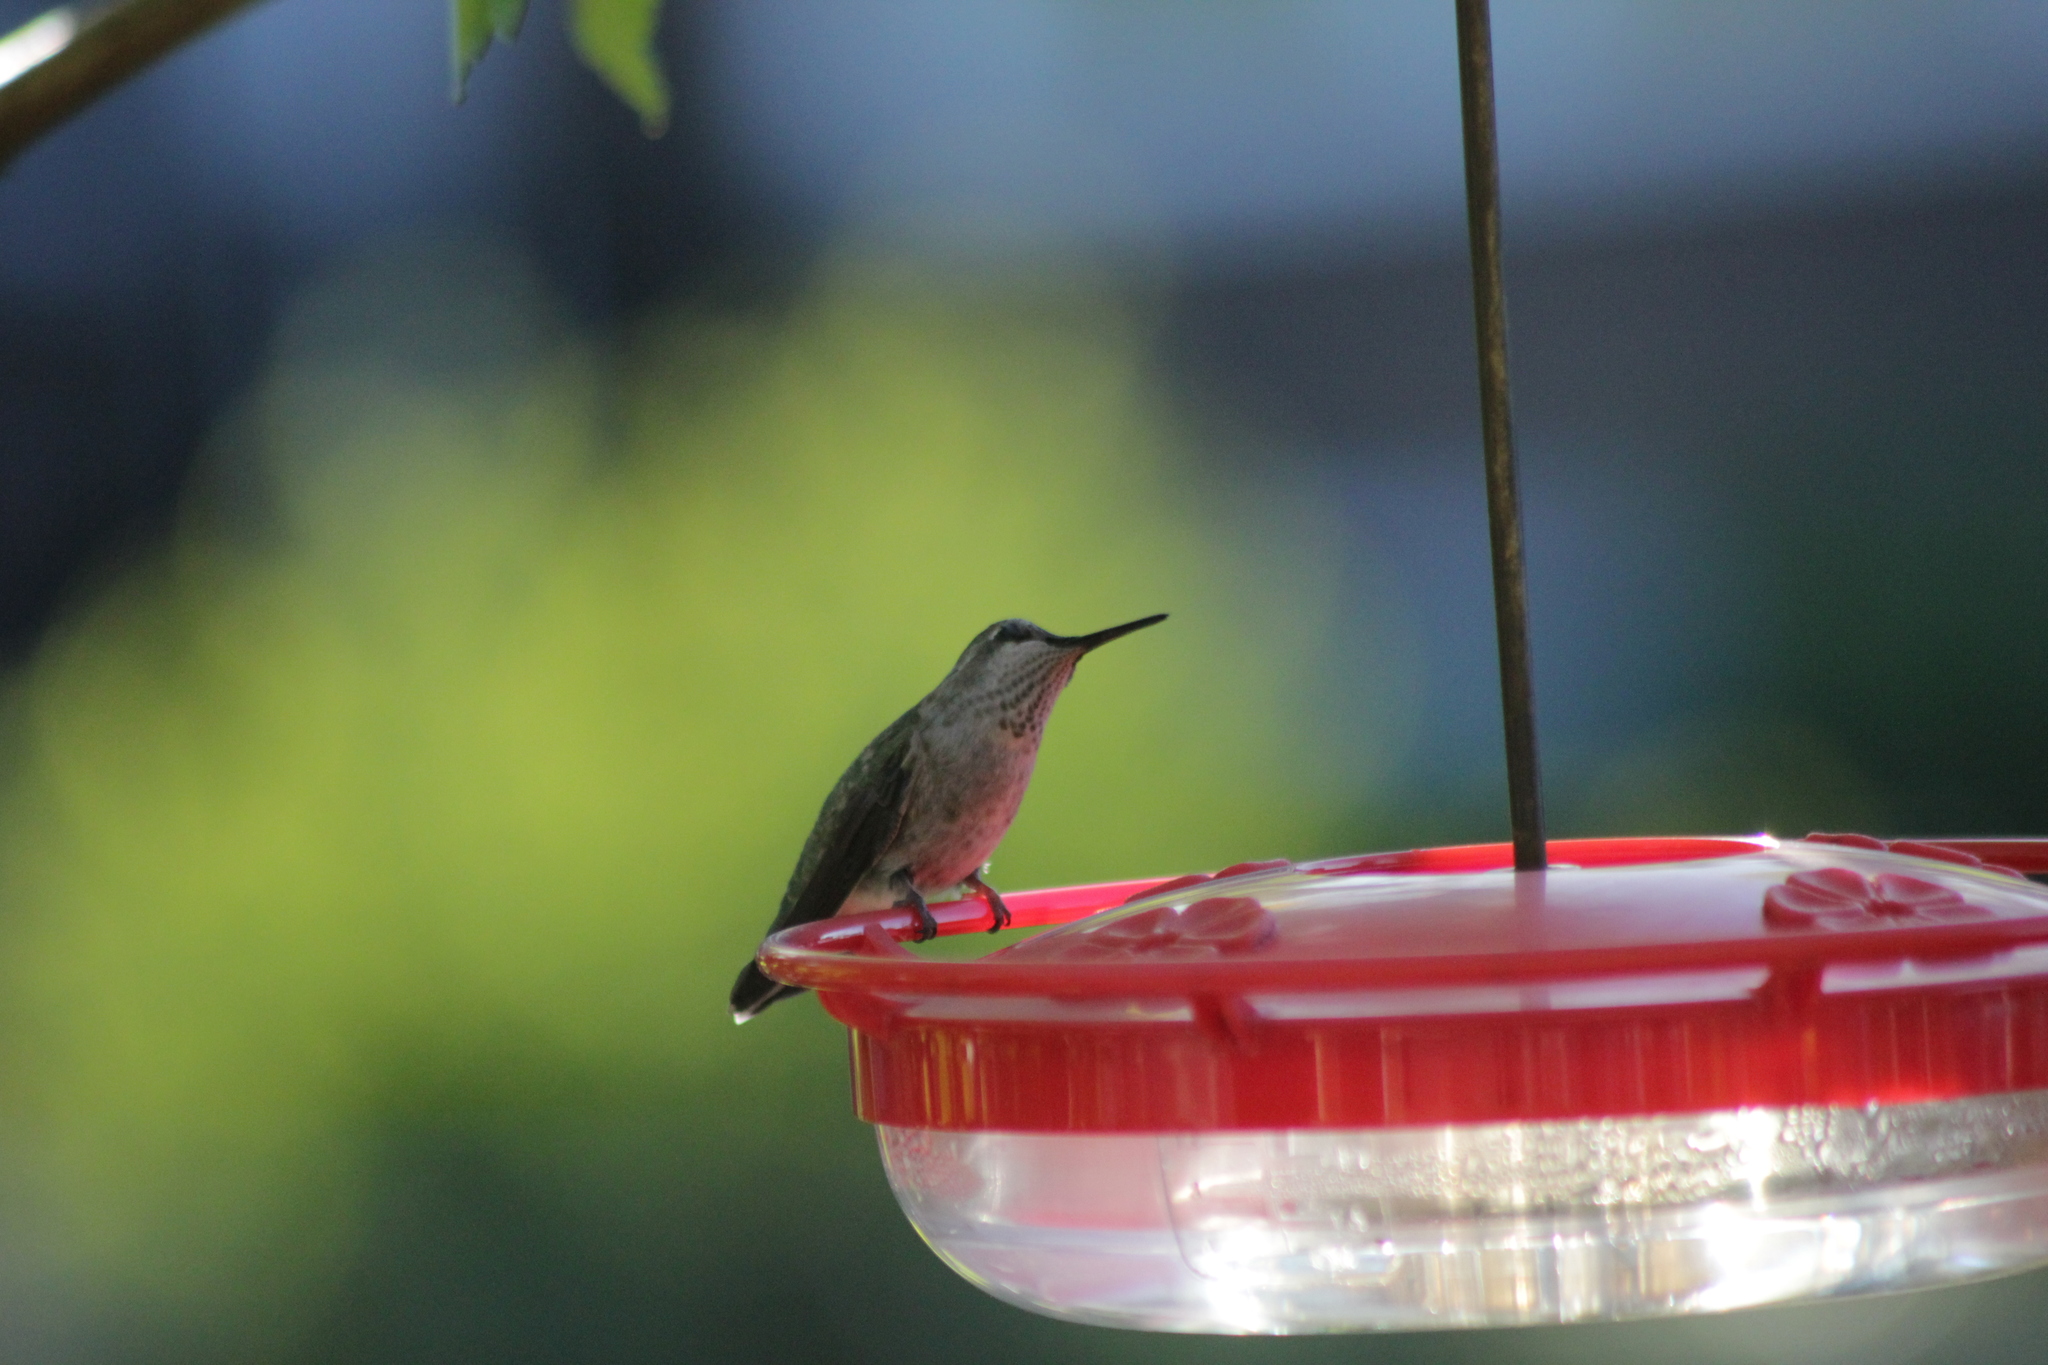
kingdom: Animalia
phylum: Chordata
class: Aves
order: Apodiformes
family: Trochilidae
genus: Calypte
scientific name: Calypte anna
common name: Anna's hummingbird
